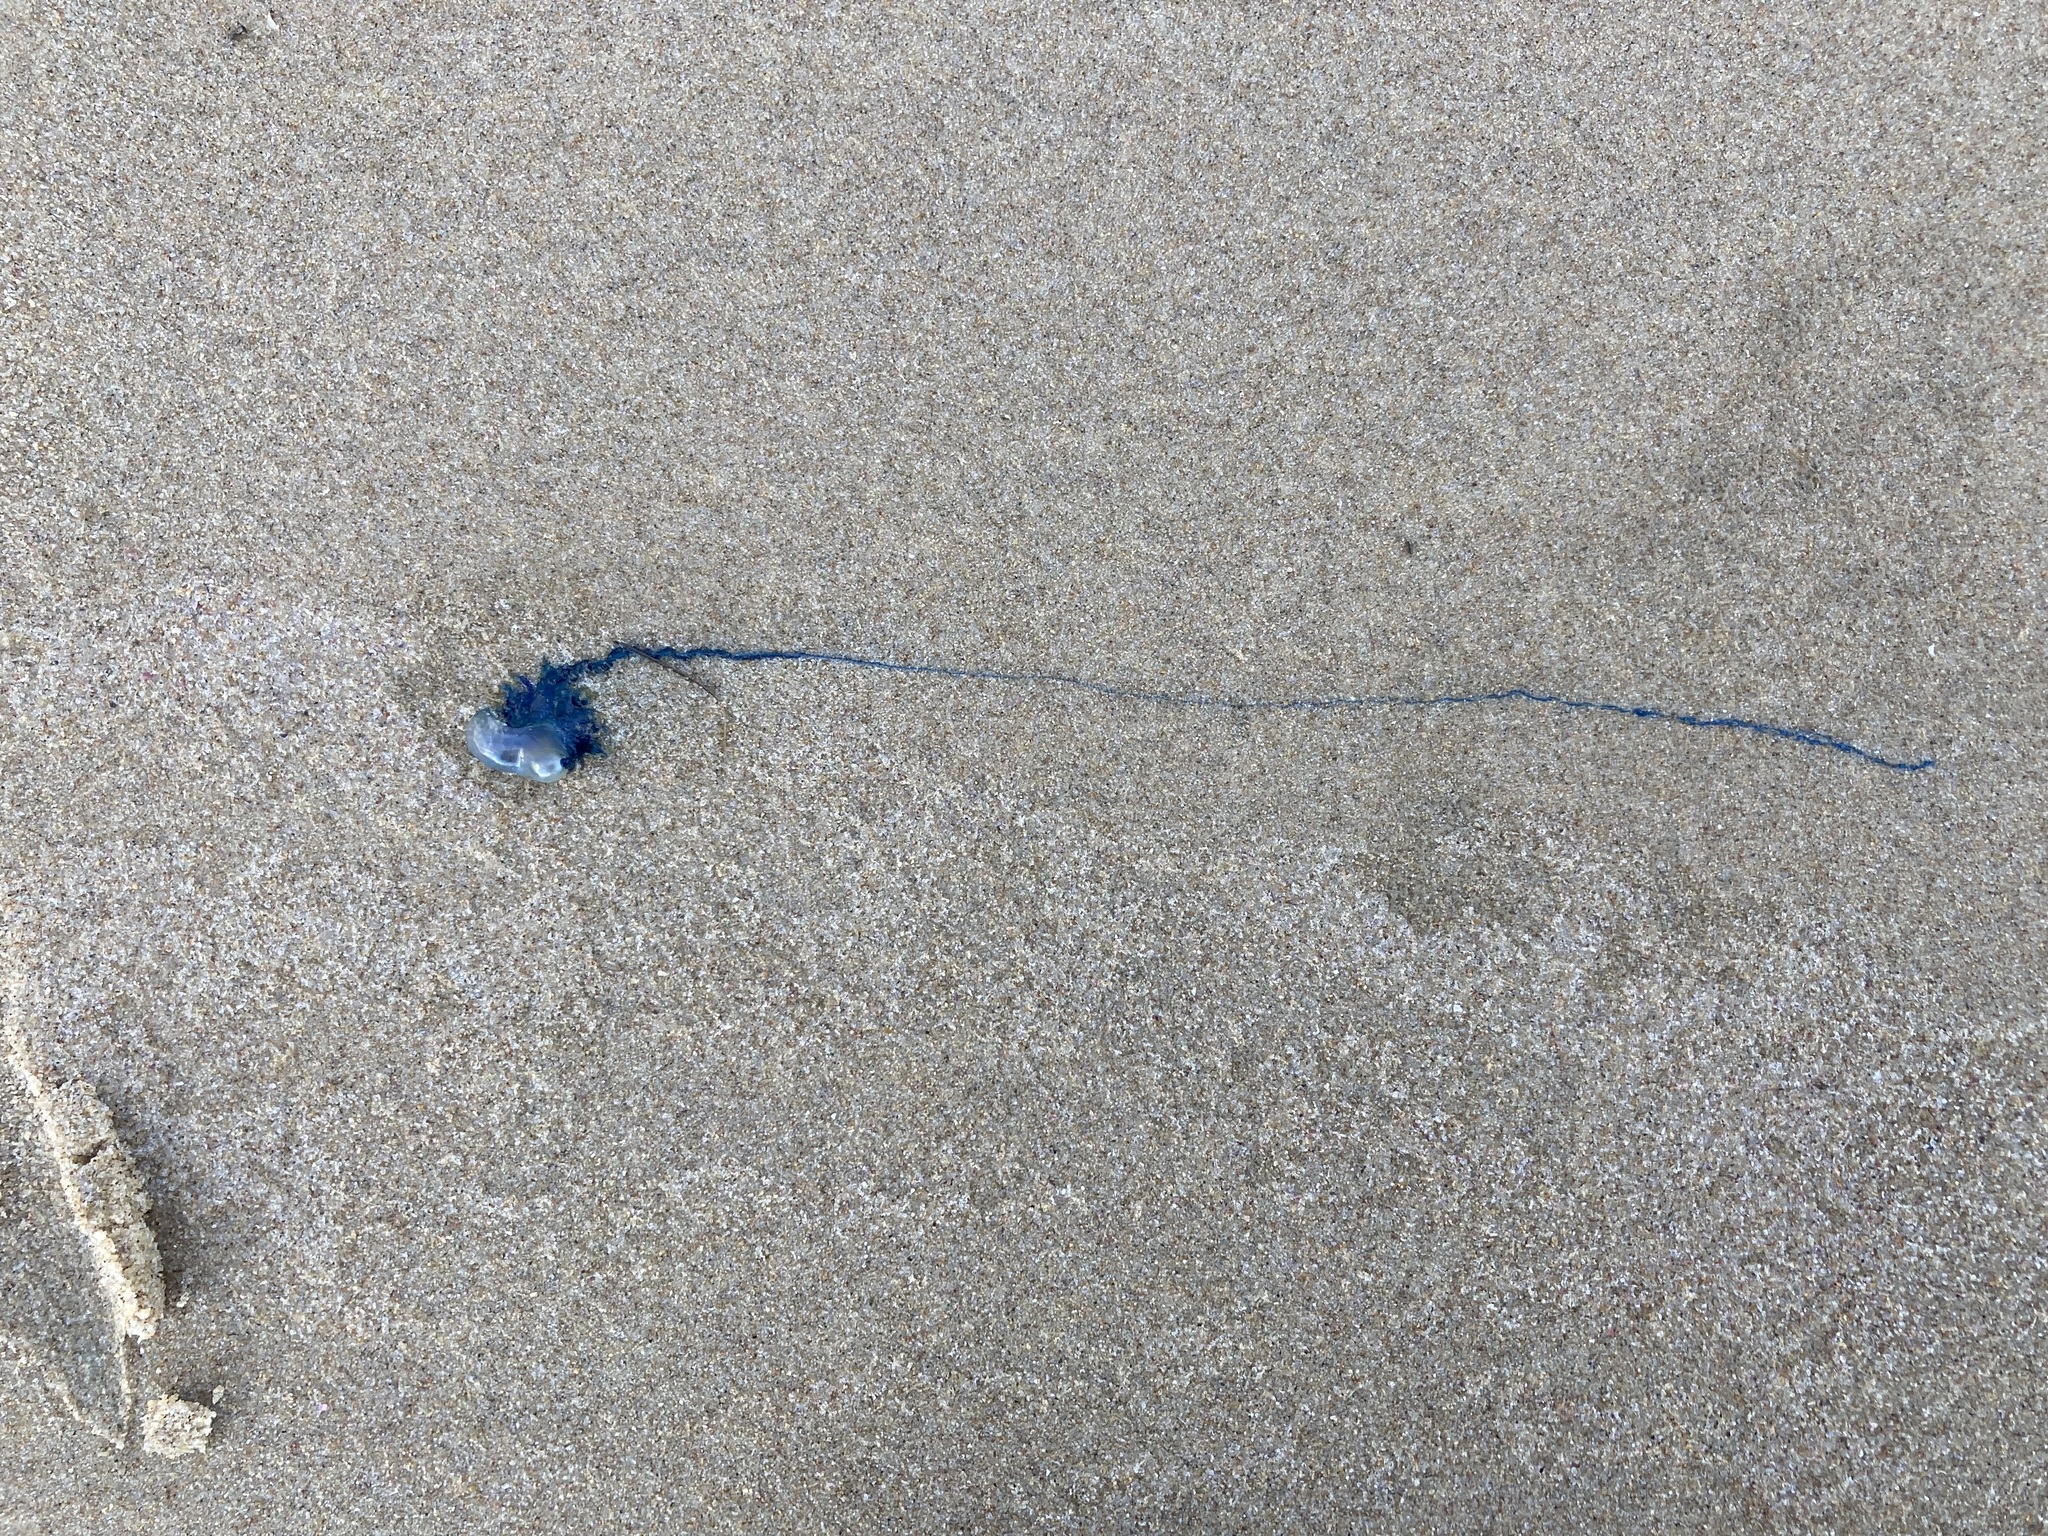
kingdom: Animalia
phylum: Cnidaria
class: Hydrozoa
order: Siphonophorae
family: Physaliidae
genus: Physalia
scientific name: Physalia physalis
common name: Portuguese man-of-war
